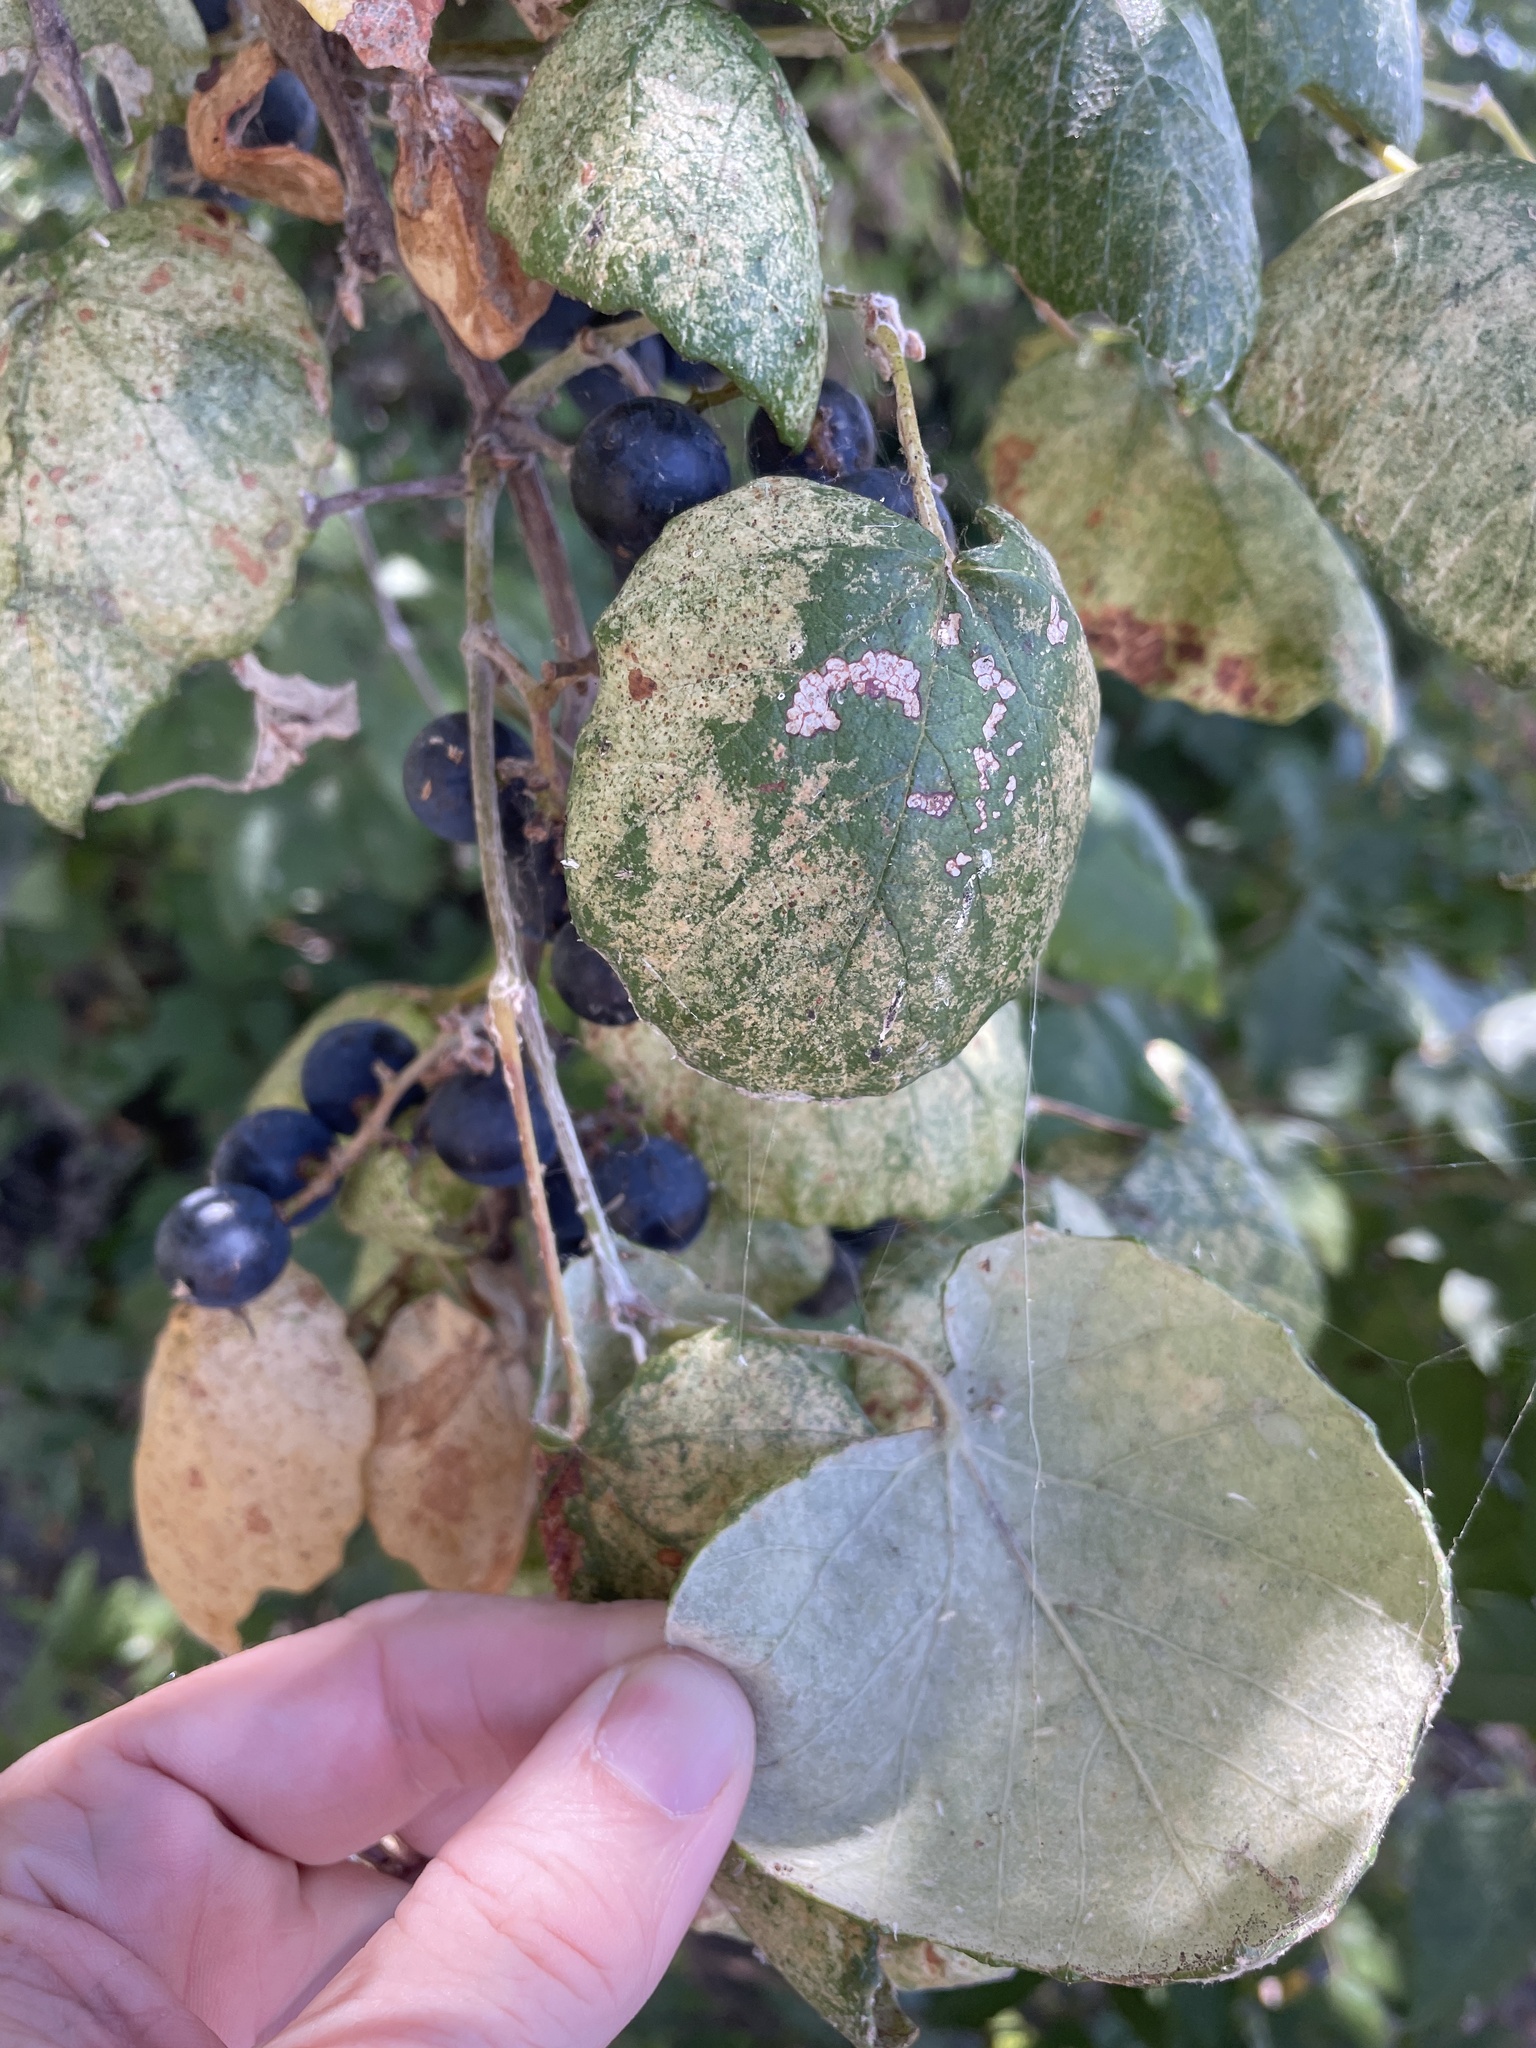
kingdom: Plantae
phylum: Tracheophyta
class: Magnoliopsida
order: Vitales
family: Vitaceae
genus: Vitis
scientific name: Vitis mustangensis
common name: Mustang grape
